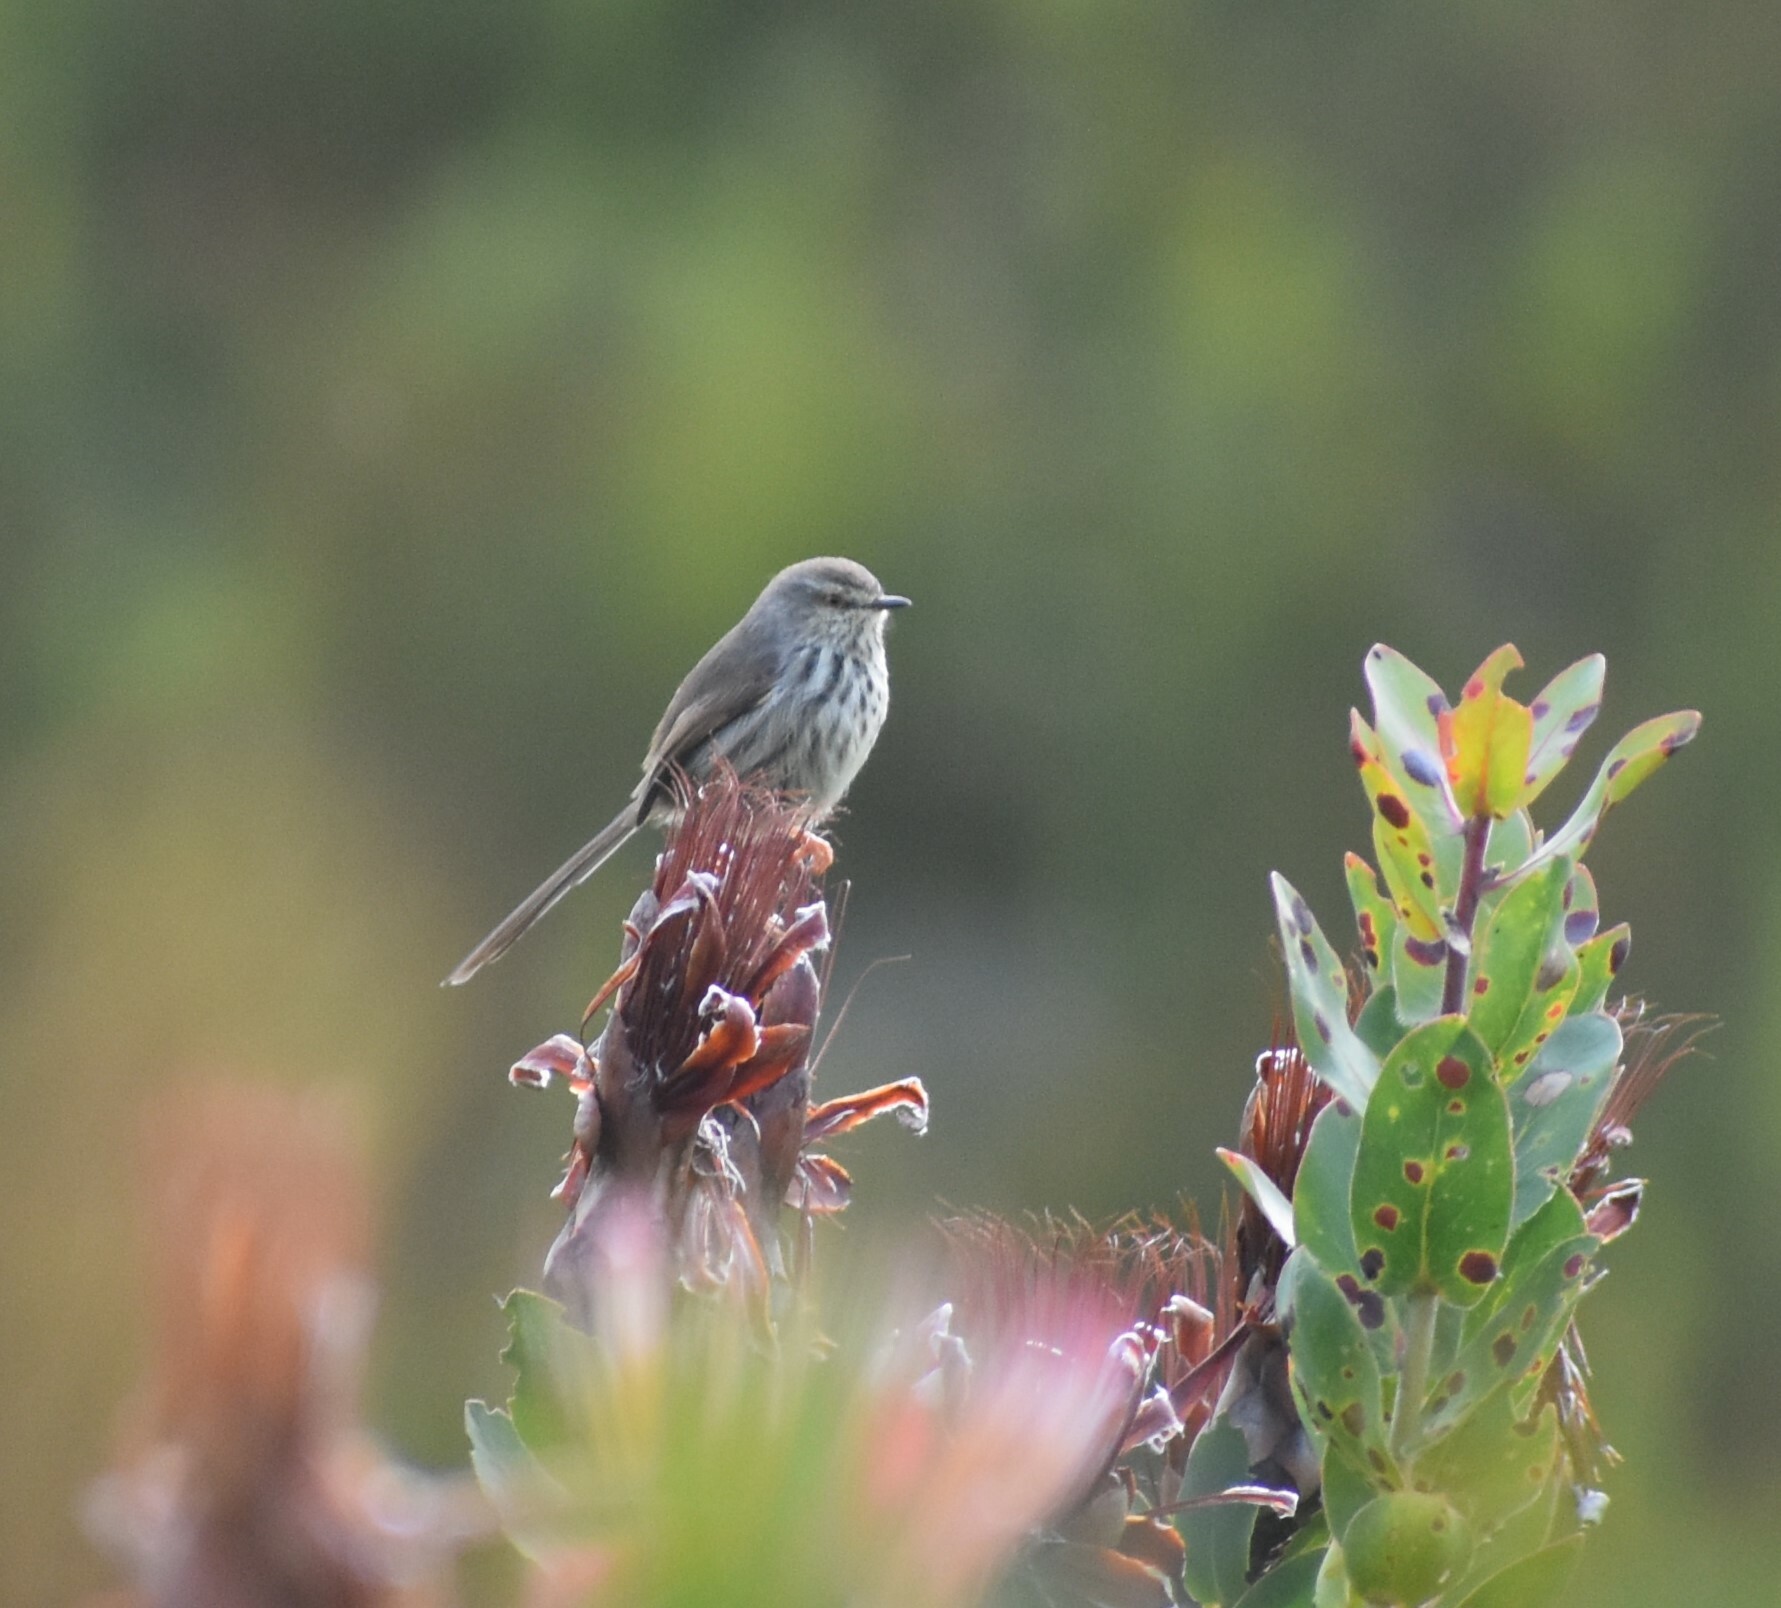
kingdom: Animalia
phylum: Chordata
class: Aves
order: Passeriformes
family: Cisticolidae
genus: Prinia
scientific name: Prinia maculosa
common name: Karoo prinia
